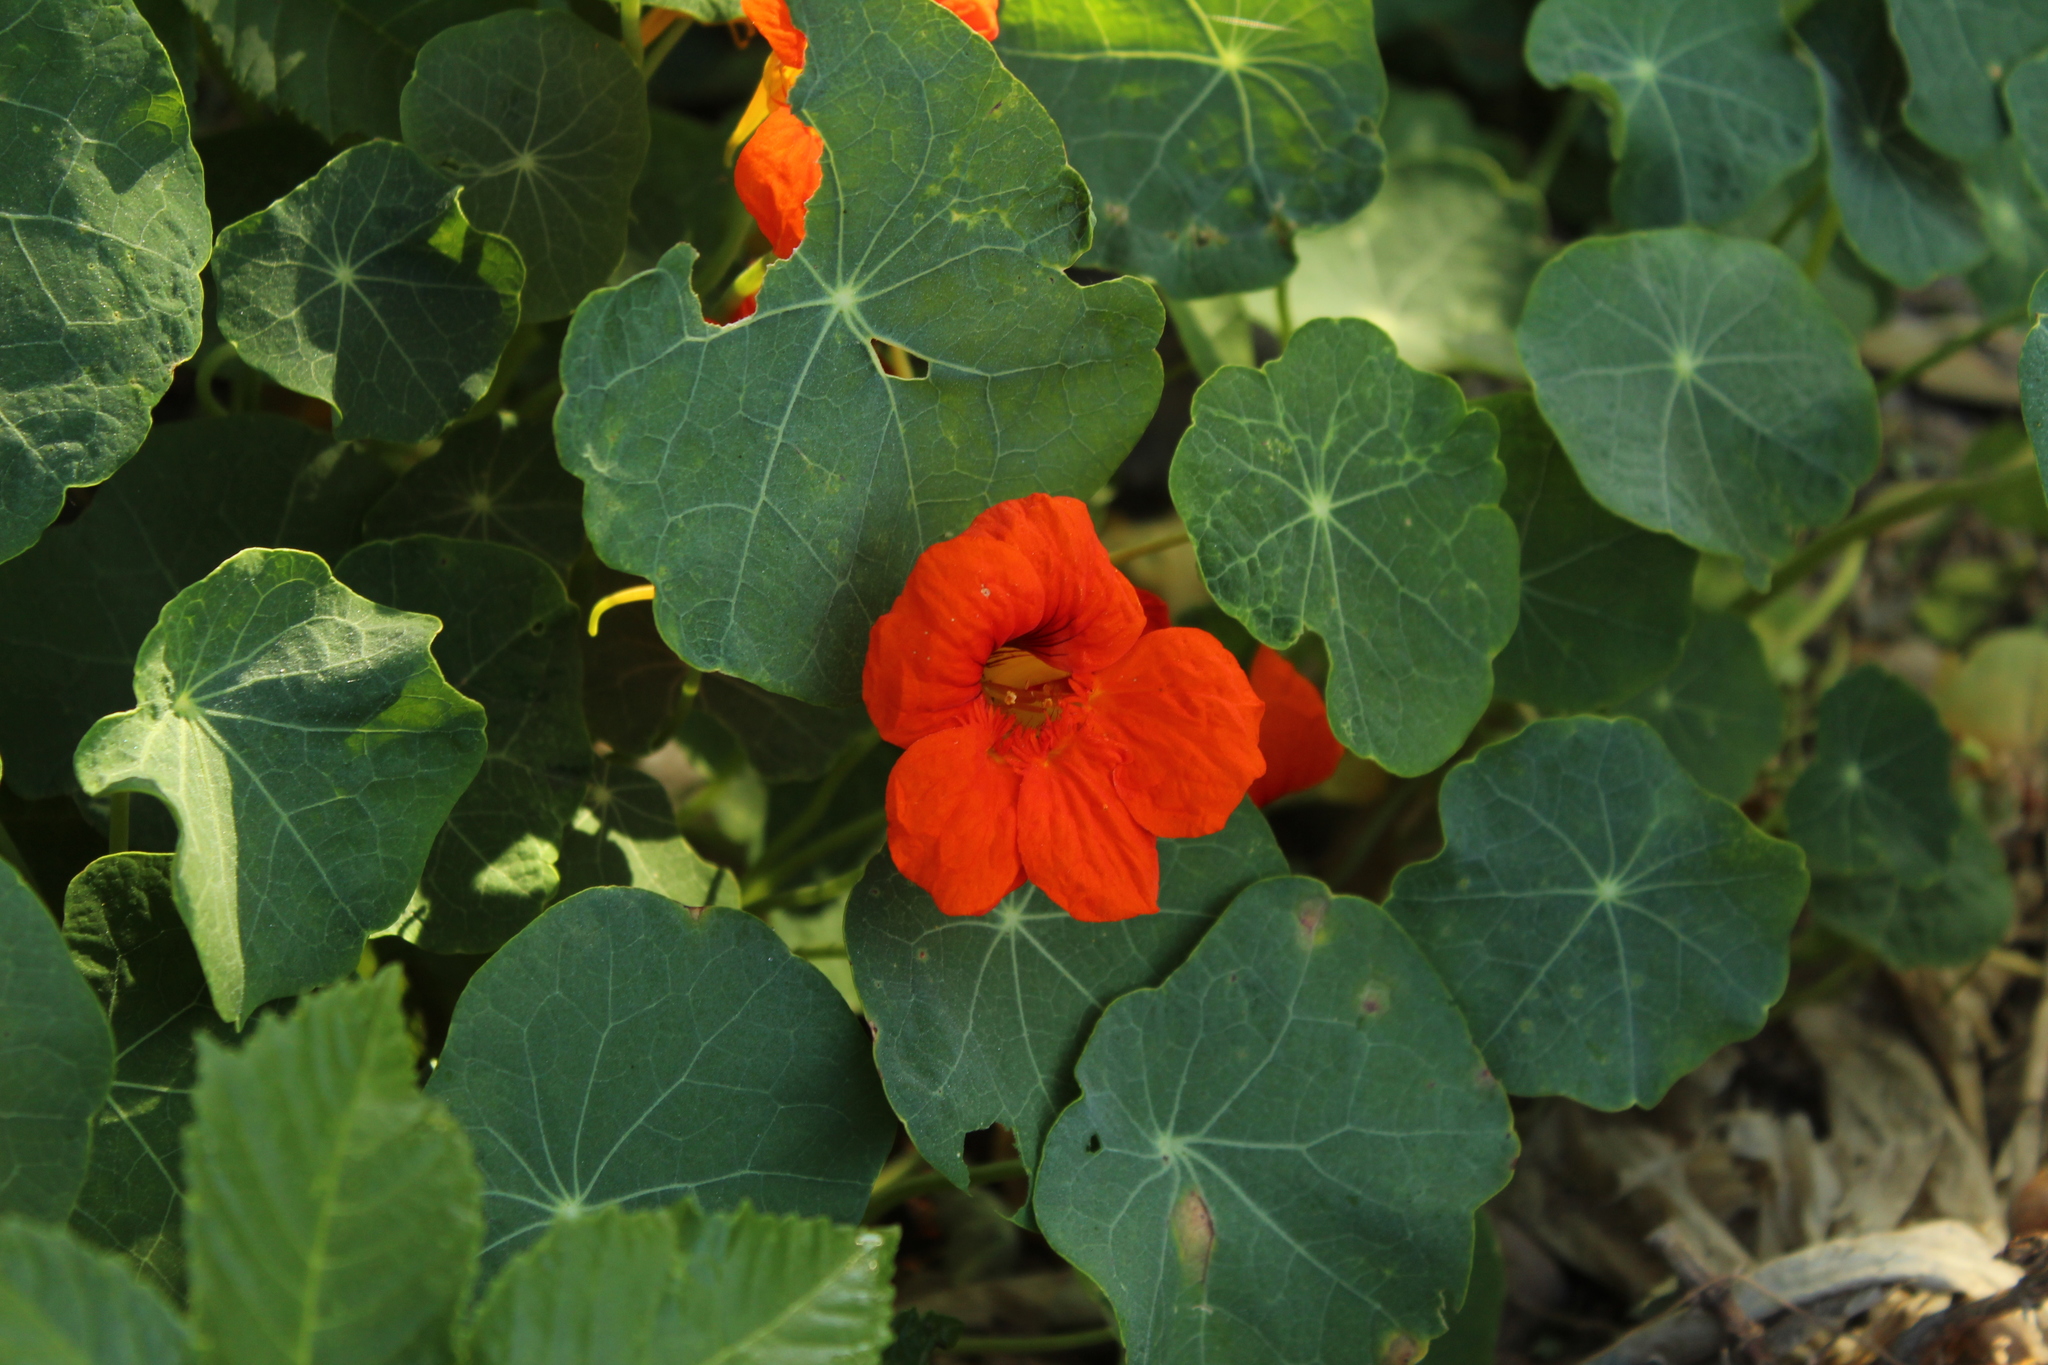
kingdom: Plantae
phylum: Tracheophyta
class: Magnoliopsida
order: Brassicales
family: Tropaeolaceae
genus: Tropaeolum
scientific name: Tropaeolum majus
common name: Nasturtium
